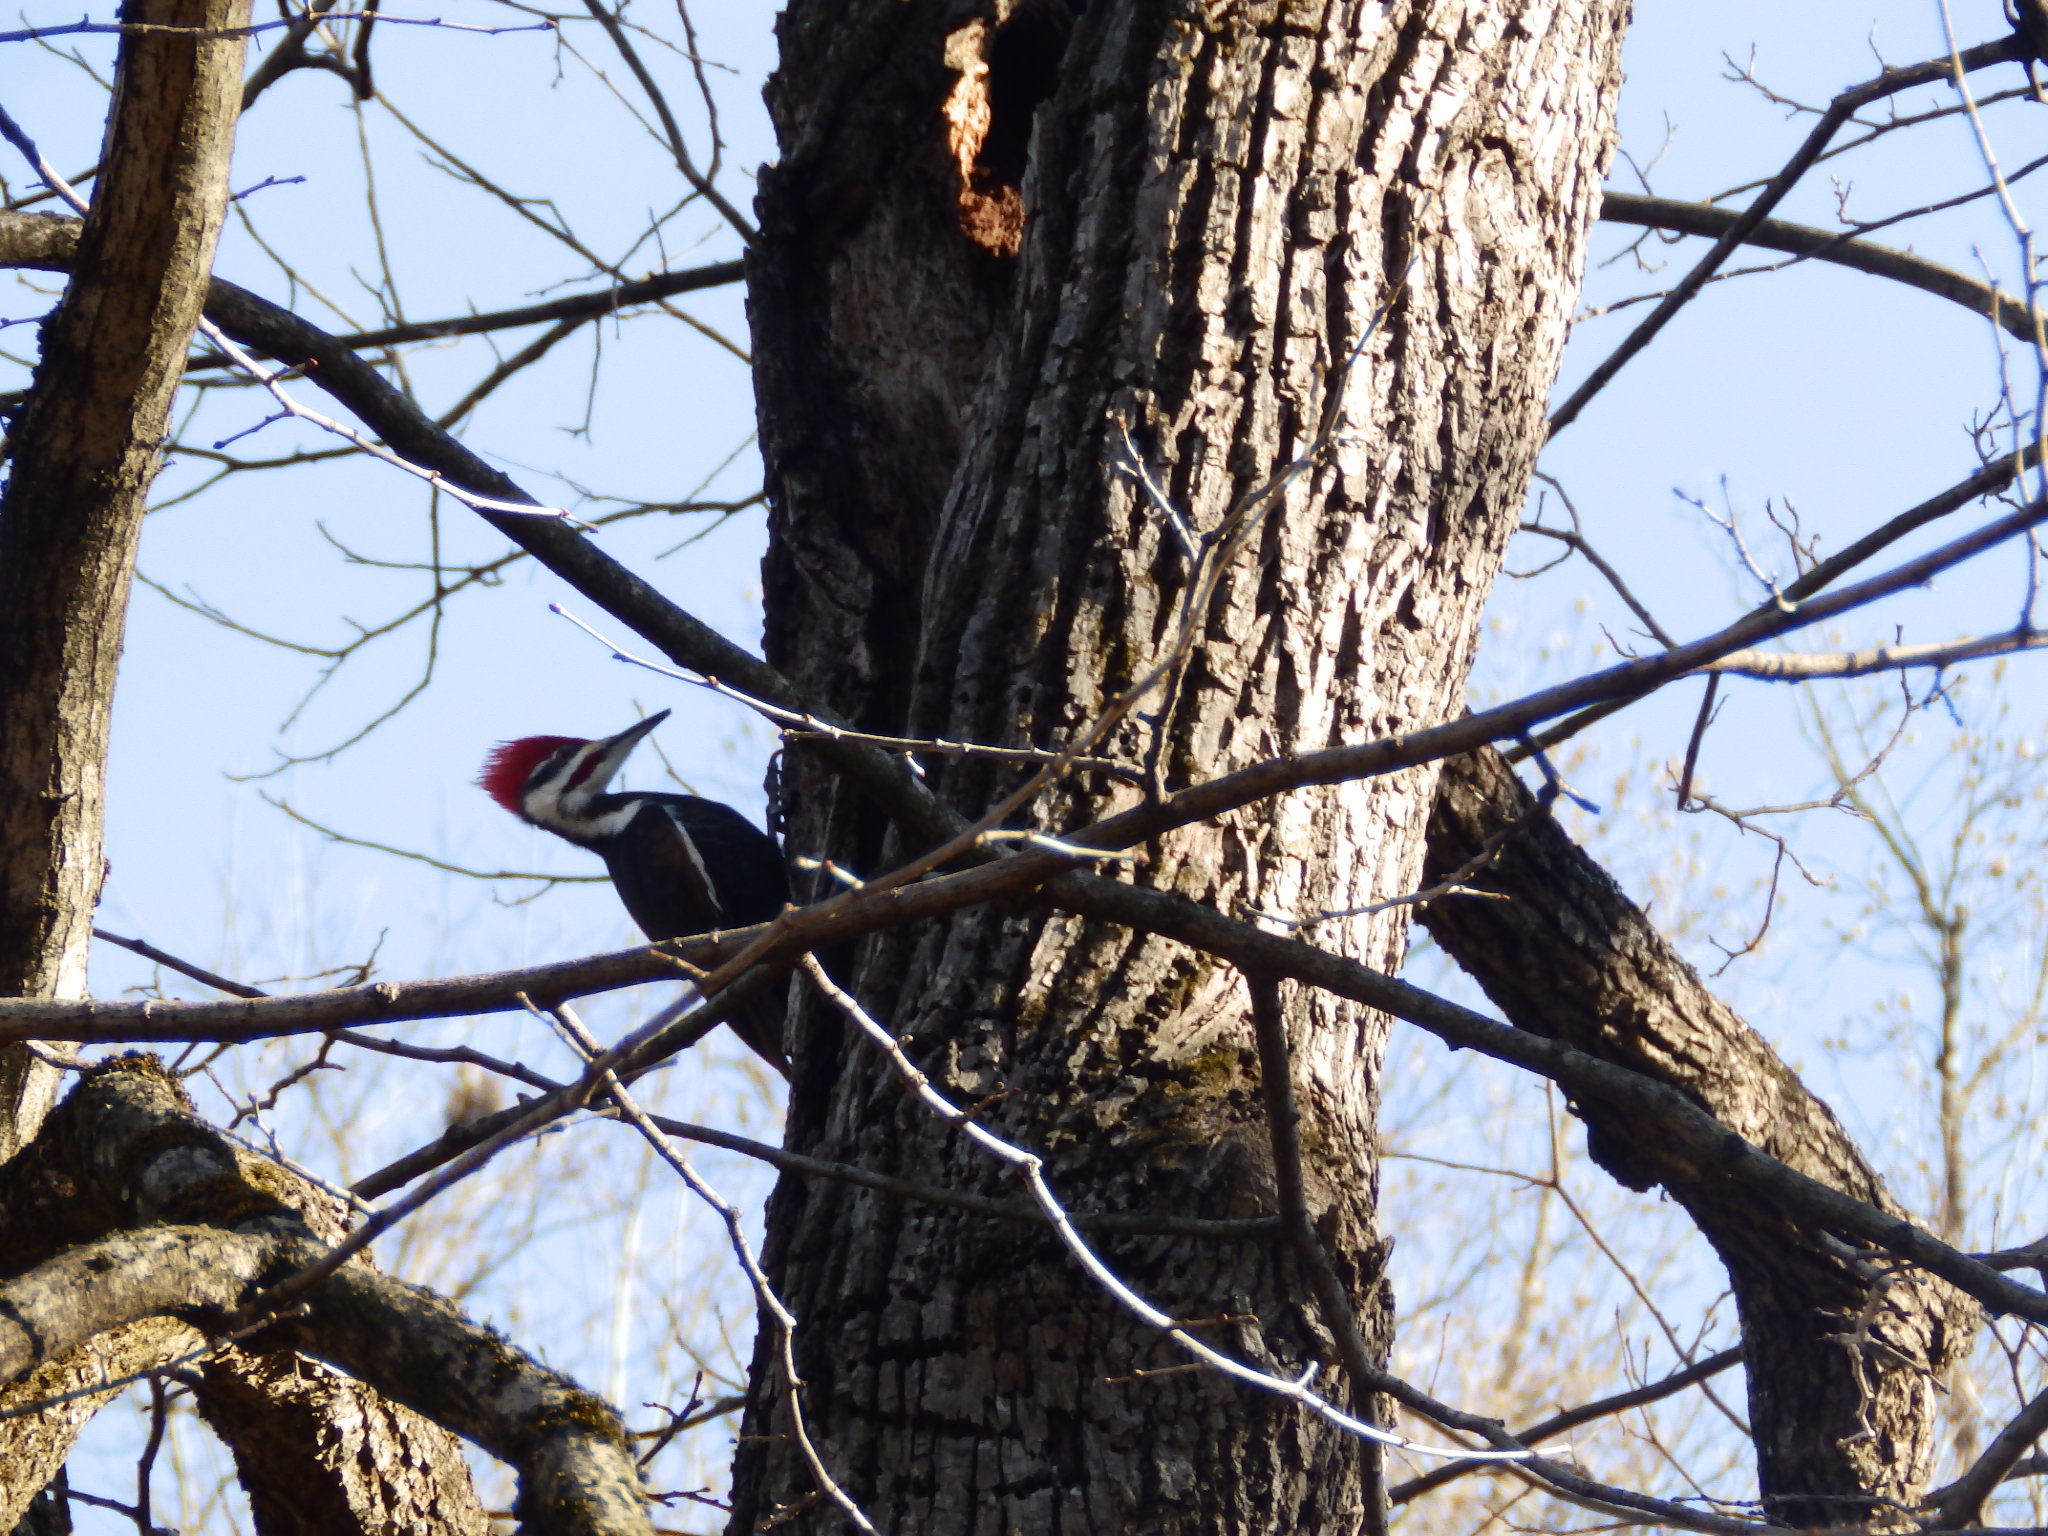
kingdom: Animalia
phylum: Chordata
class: Aves
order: Piciformes
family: Picidae
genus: Dryocopus
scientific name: Dryocopus pileatus
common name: Pileated woodpecker
